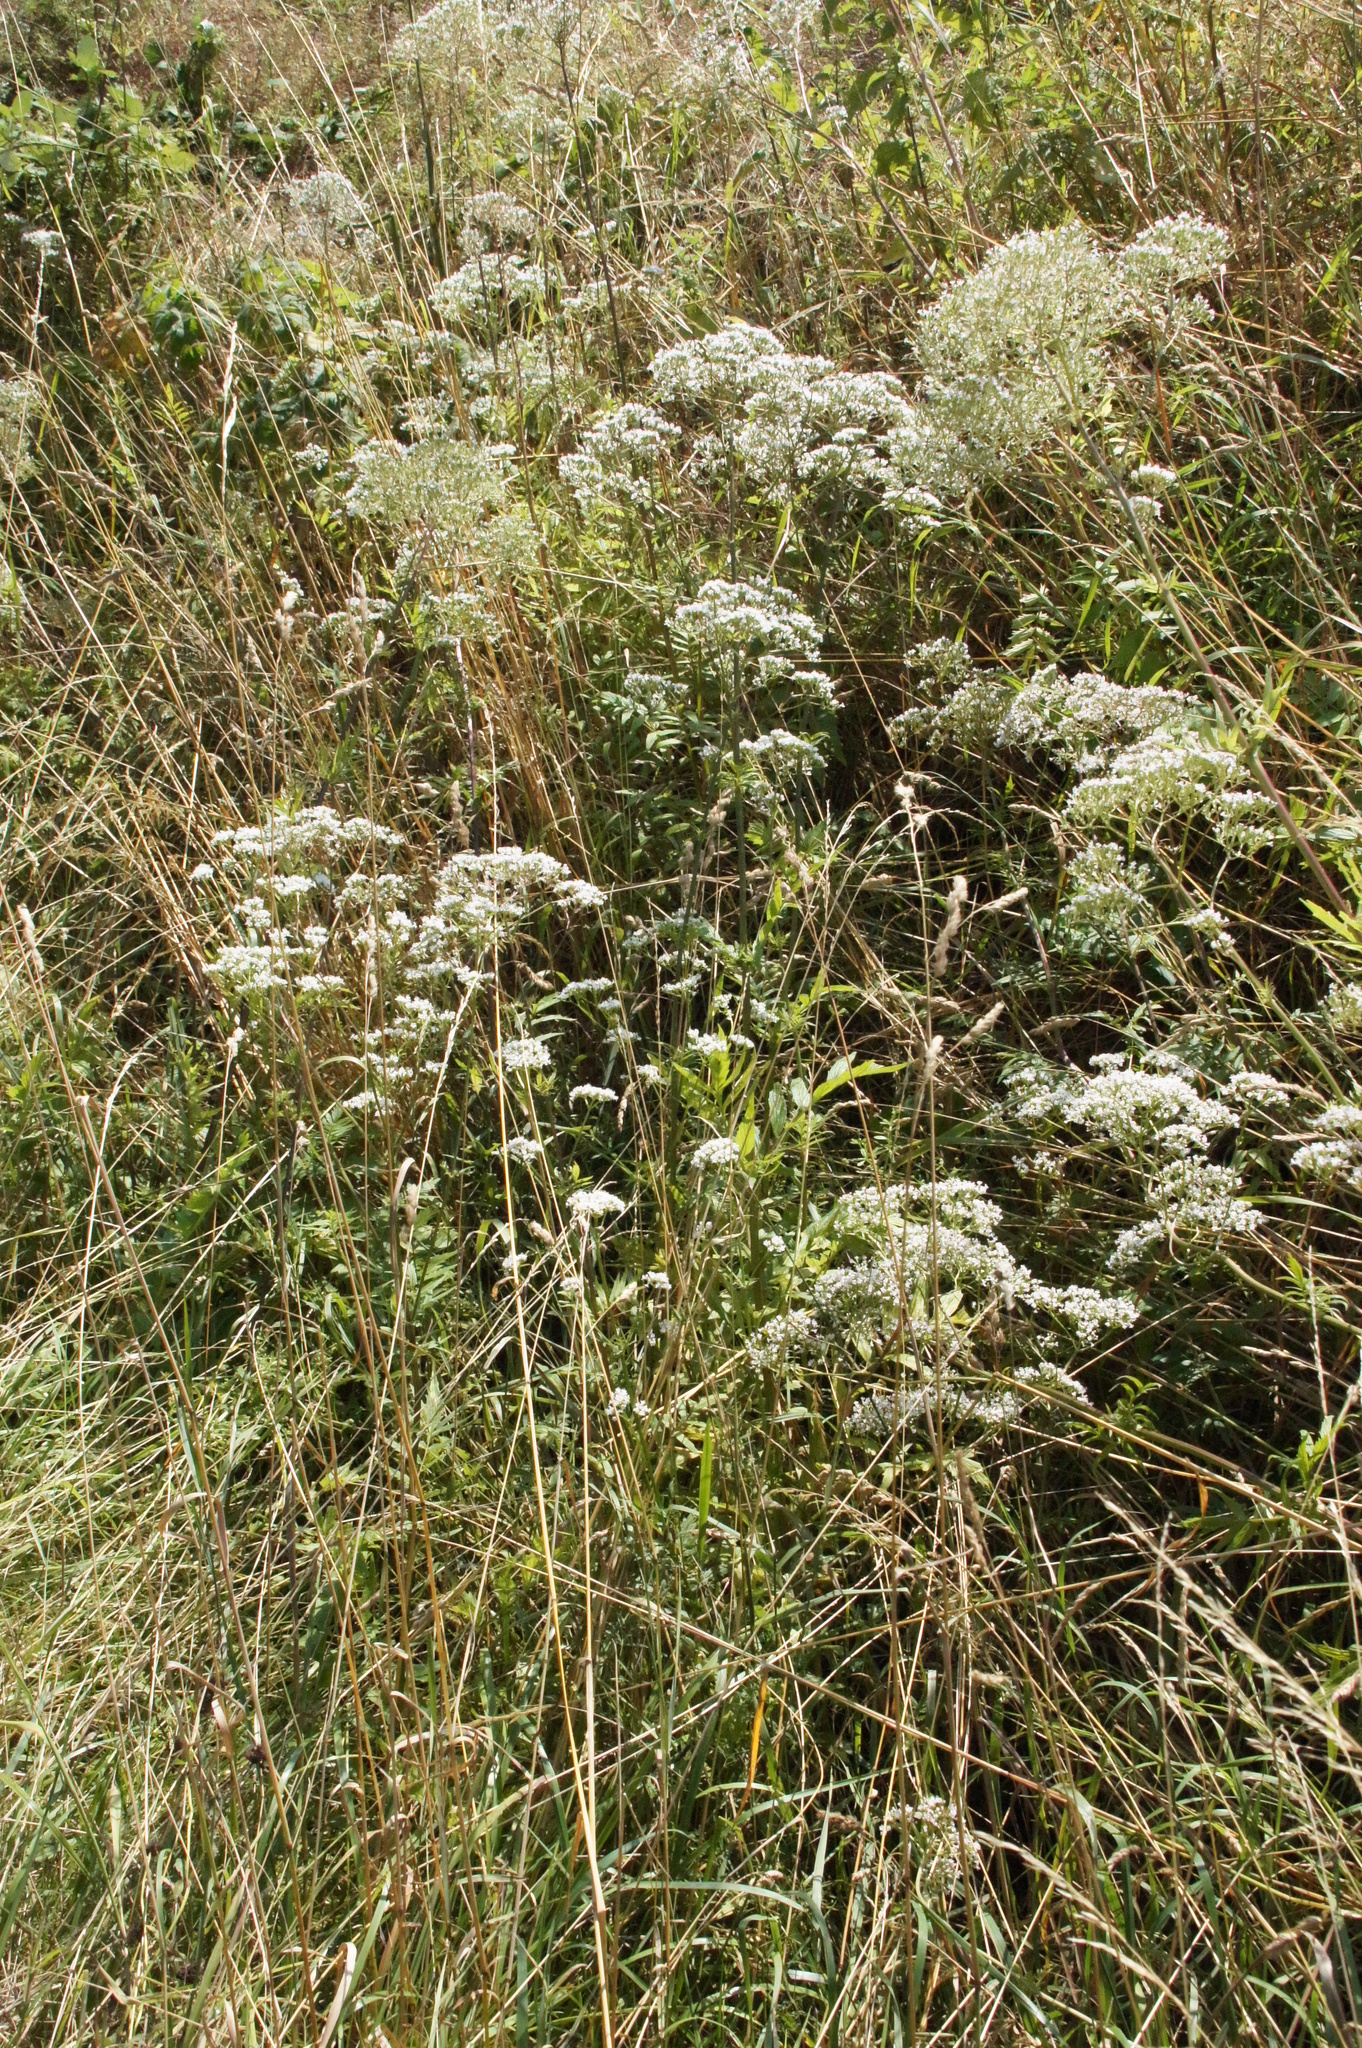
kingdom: Plantae
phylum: Tracheophyta
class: Magnoliopsida
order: Dipsacales
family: Caprifoliaceae
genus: Valeriana
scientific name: Valeriana officinalis
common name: Common valerian
